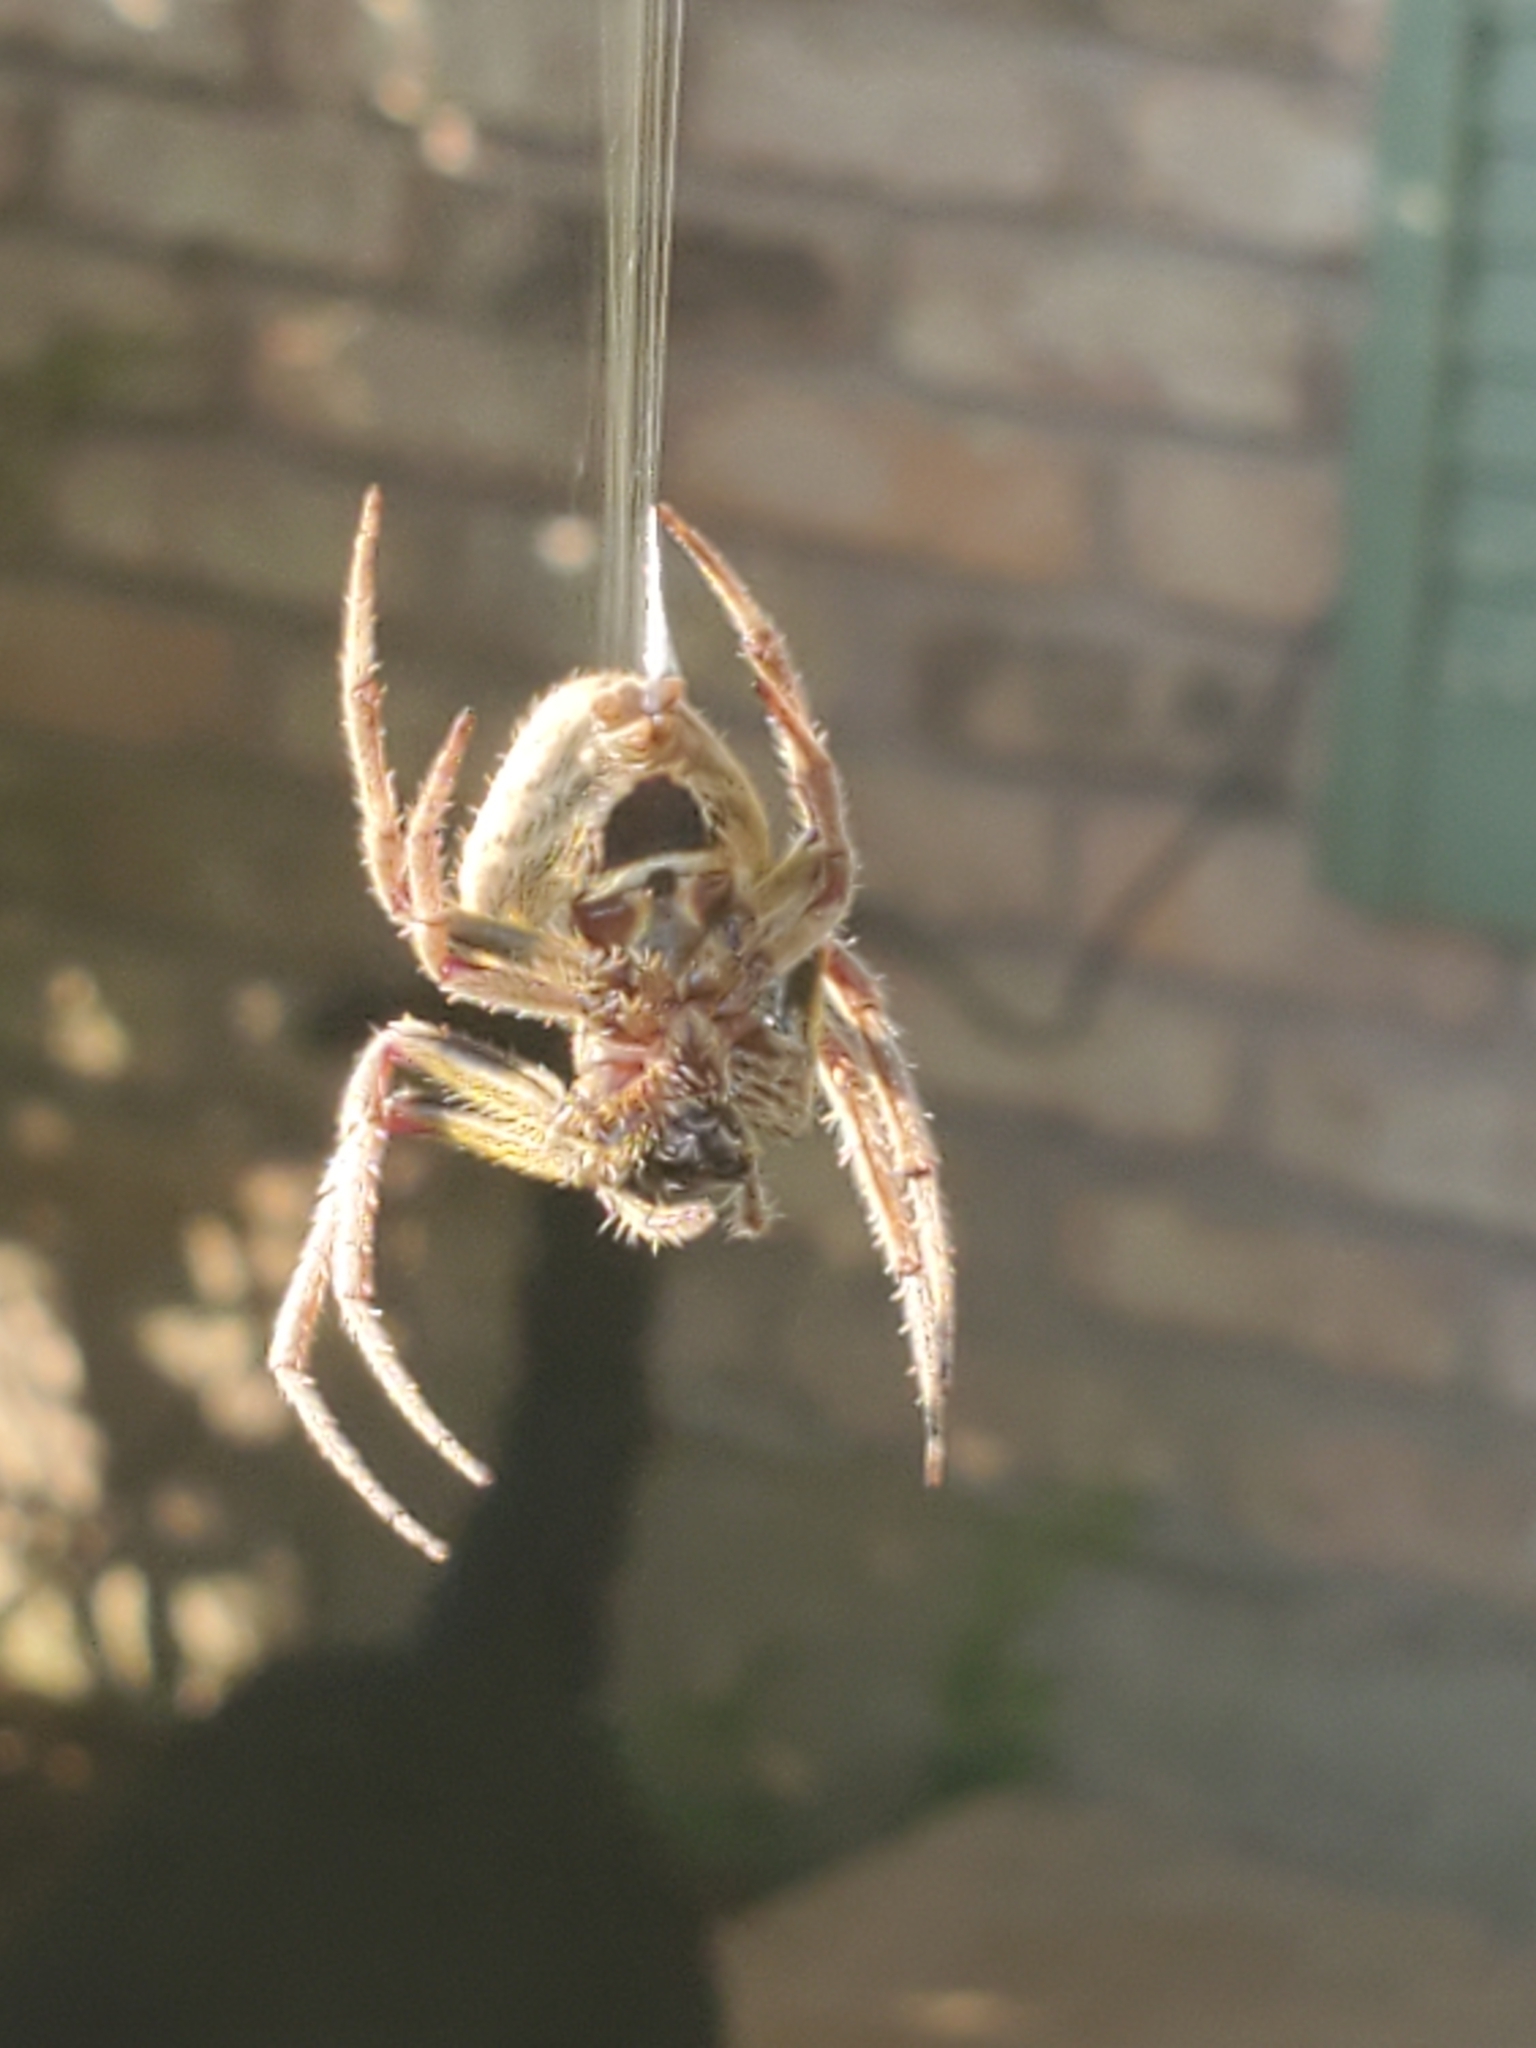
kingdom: Animalia
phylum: Arthropoda
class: Arachnida
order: Araneae
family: Araneidae
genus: Eriophora
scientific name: Eriophora ravilla
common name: Orb weavers
